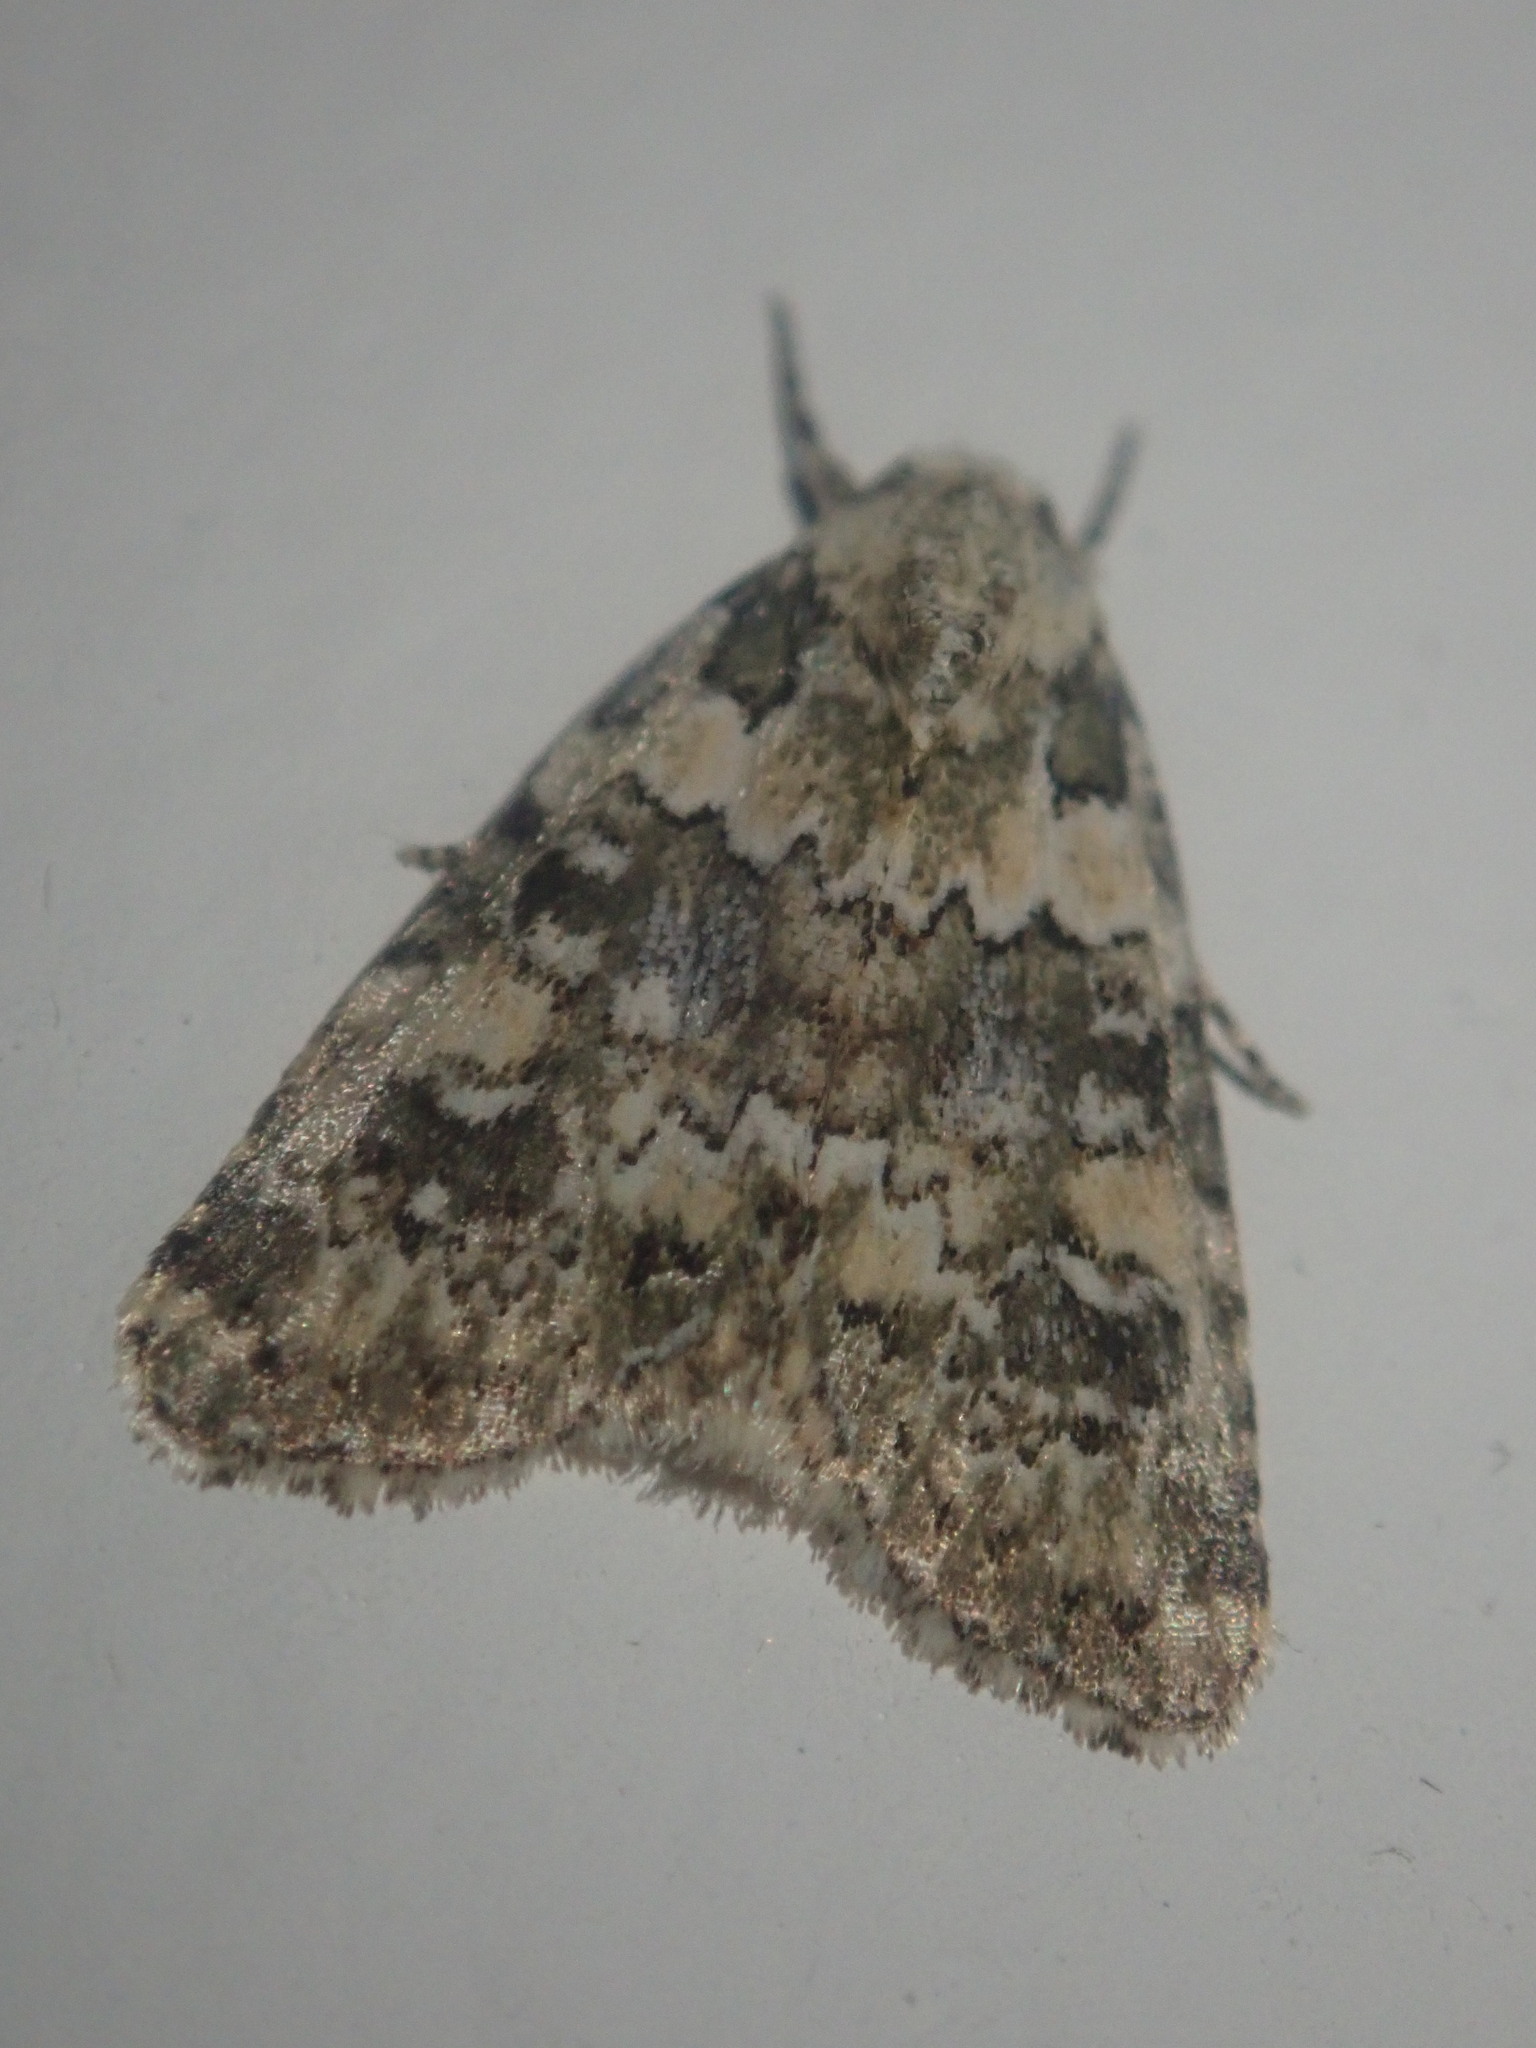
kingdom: Animalia
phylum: Arthropoda
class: Insecta
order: Lepidoptera
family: Noctuidae
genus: Bryophila
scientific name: Bryophila domestica
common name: Marbled beauty
